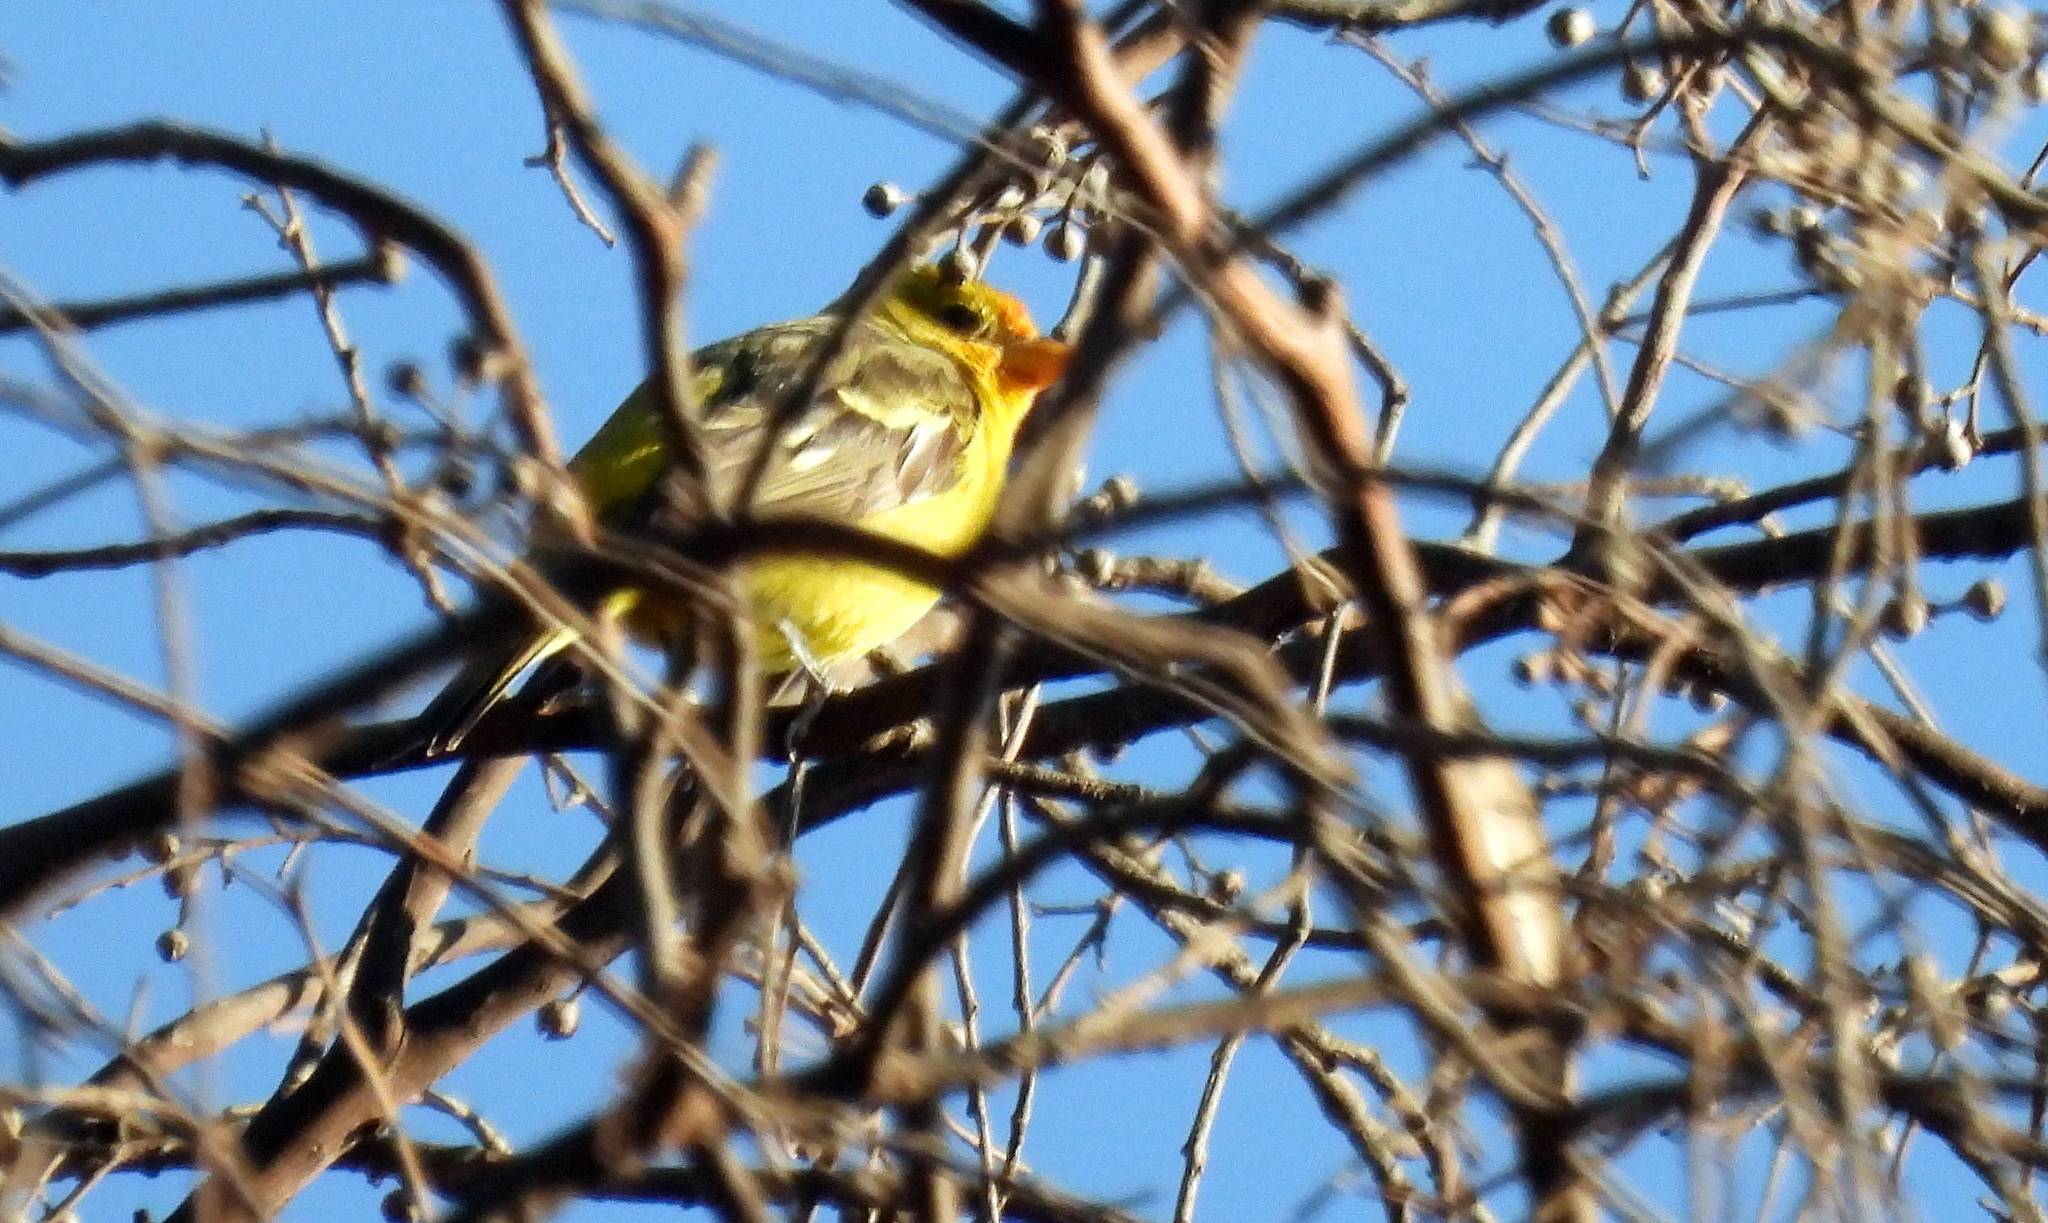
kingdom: Animalia
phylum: Chordata
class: Aves
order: Passeriformes
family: Cardinalidae
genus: Piranga
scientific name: Piranga ludoviciana
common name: Western tanager
